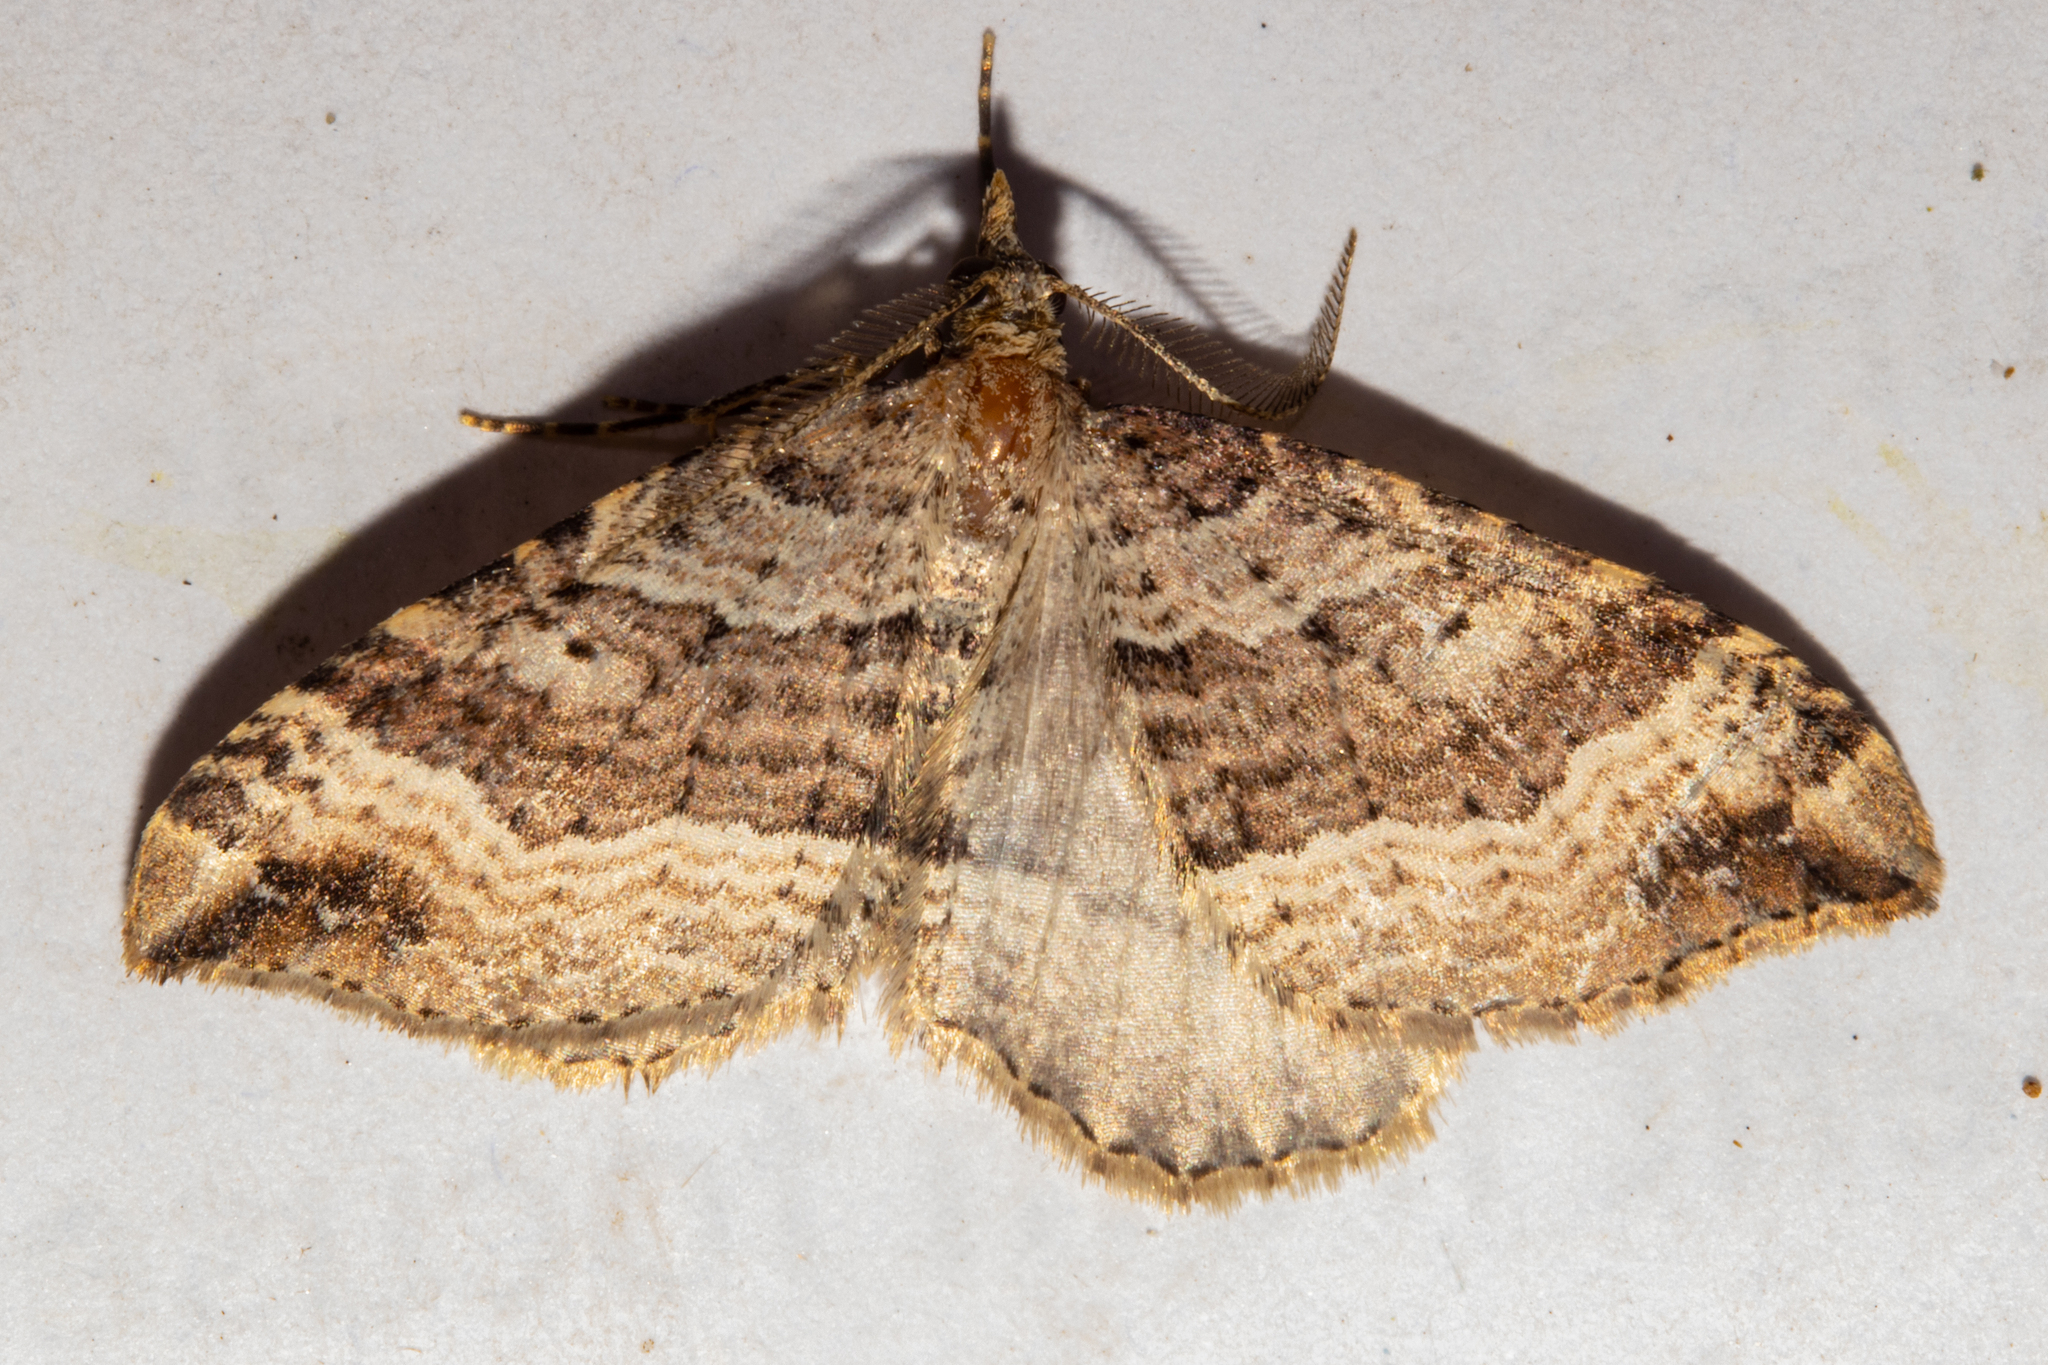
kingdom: Animalia
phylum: Arthropoda
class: Insecta
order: Lepidoptera
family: Geometridae
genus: Homodotis
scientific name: Homodotis falcata
